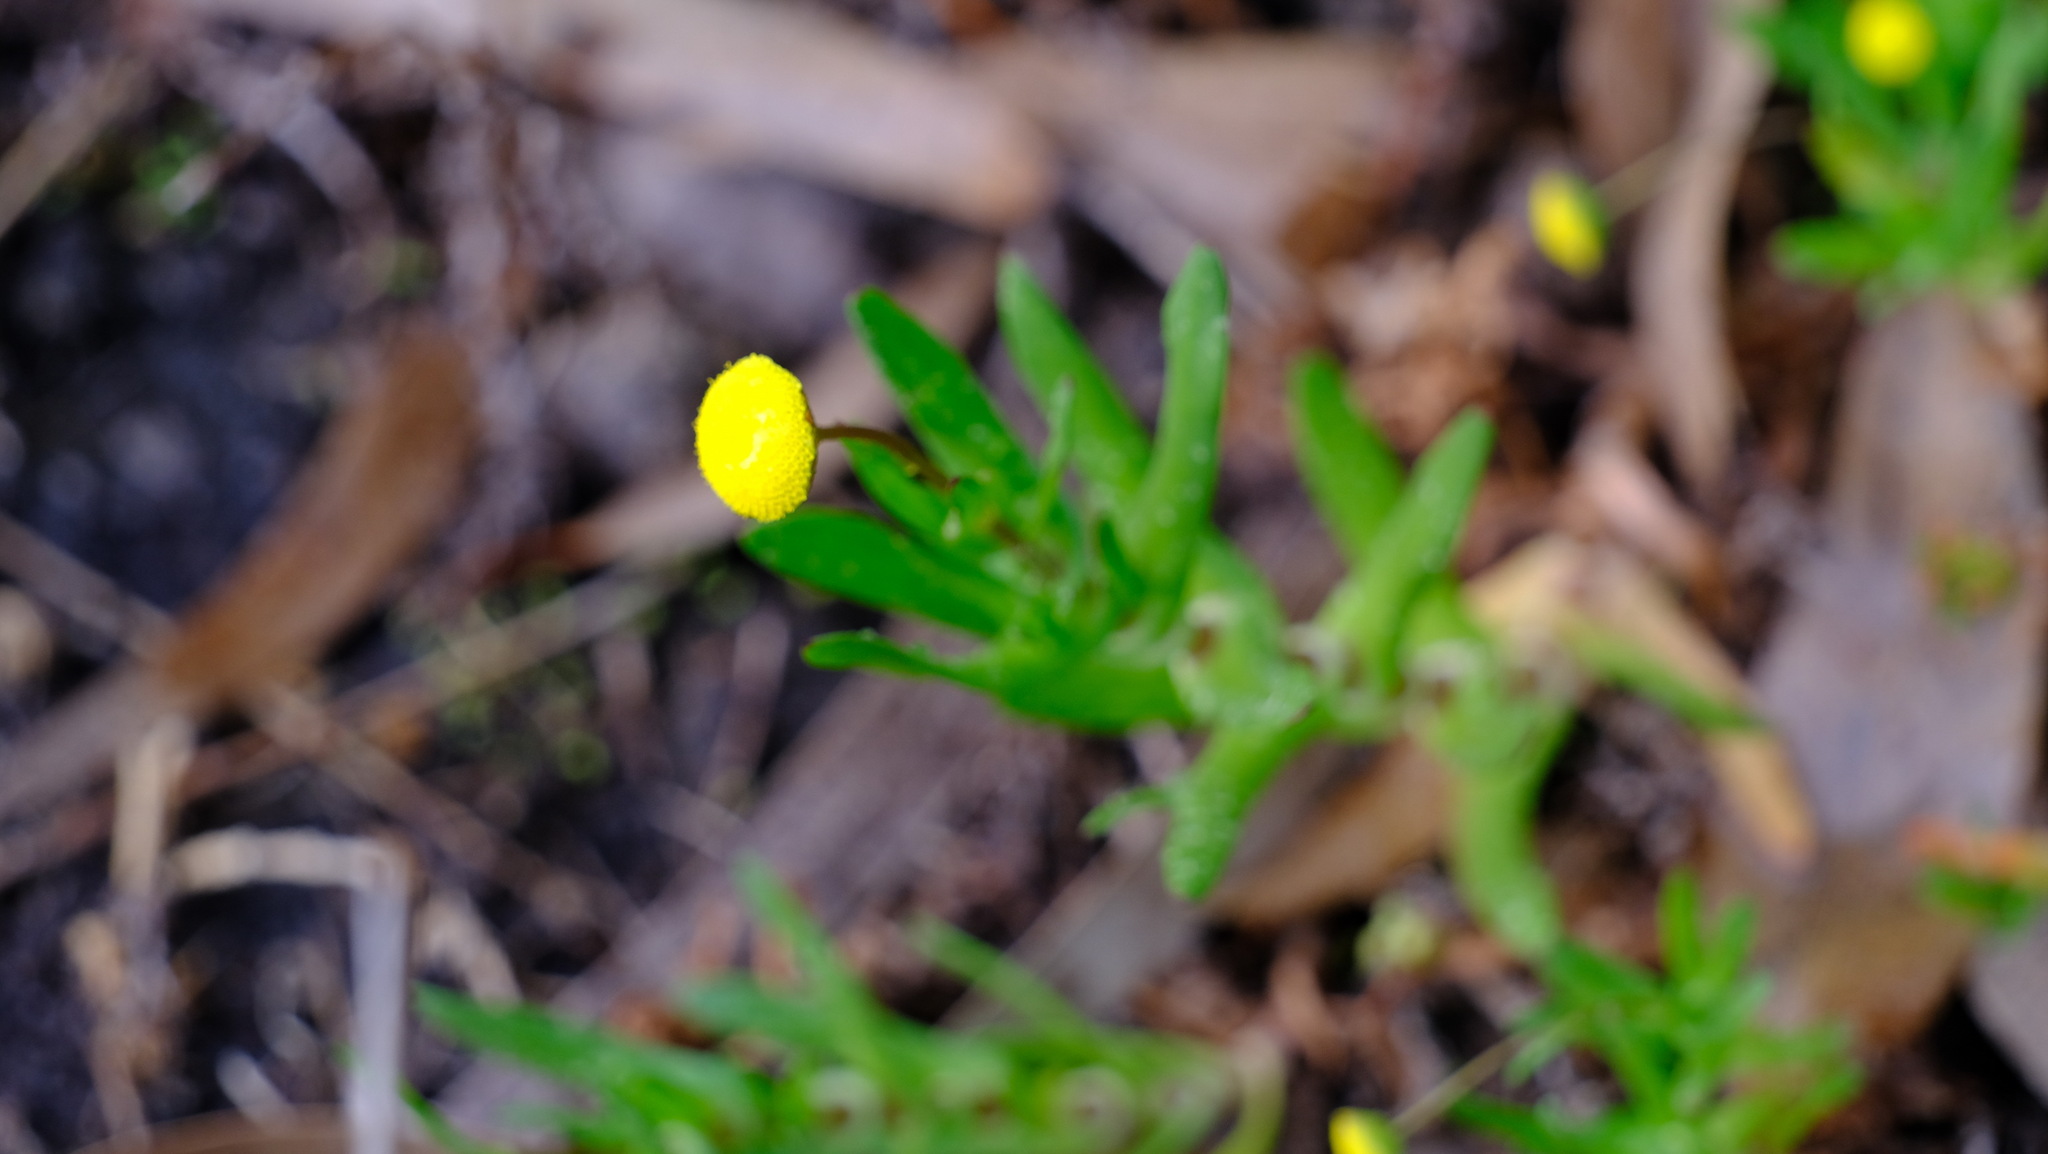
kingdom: Plantae
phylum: Tracheophyta
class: Magnoliopsida
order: Asterales
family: Asteraceae
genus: Cotula
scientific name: Cotula coronopifolia
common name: Buttonweed
